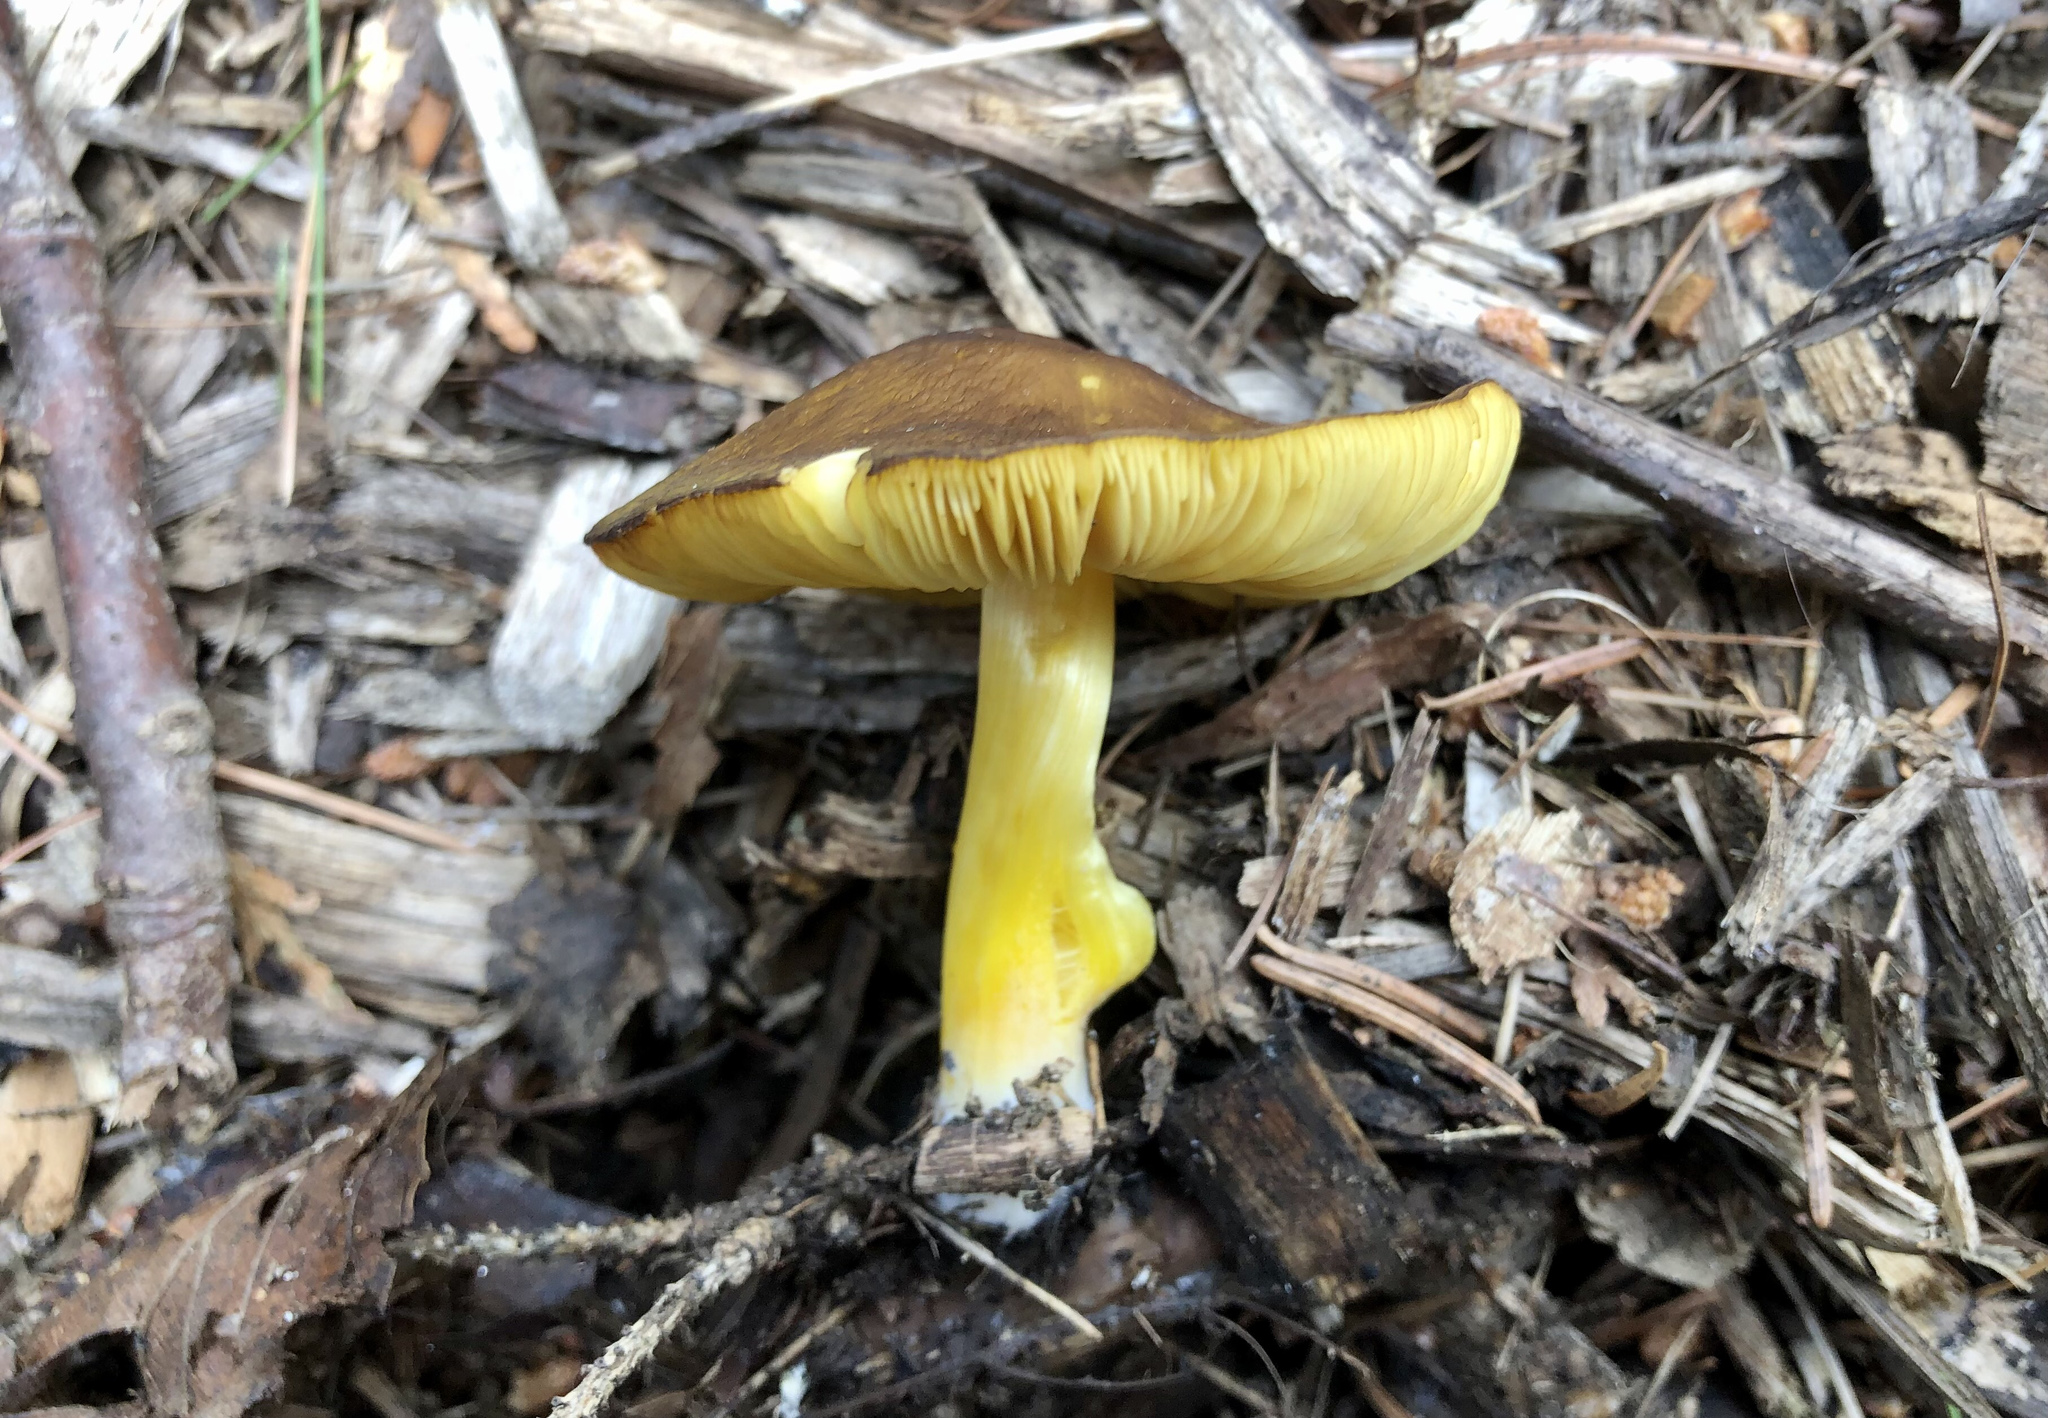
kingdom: Fungi
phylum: Basidiomycota
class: Agaricomycetes
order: Agaricales
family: Pluteaceae
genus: Pluteus
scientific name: Pluteus romellii
